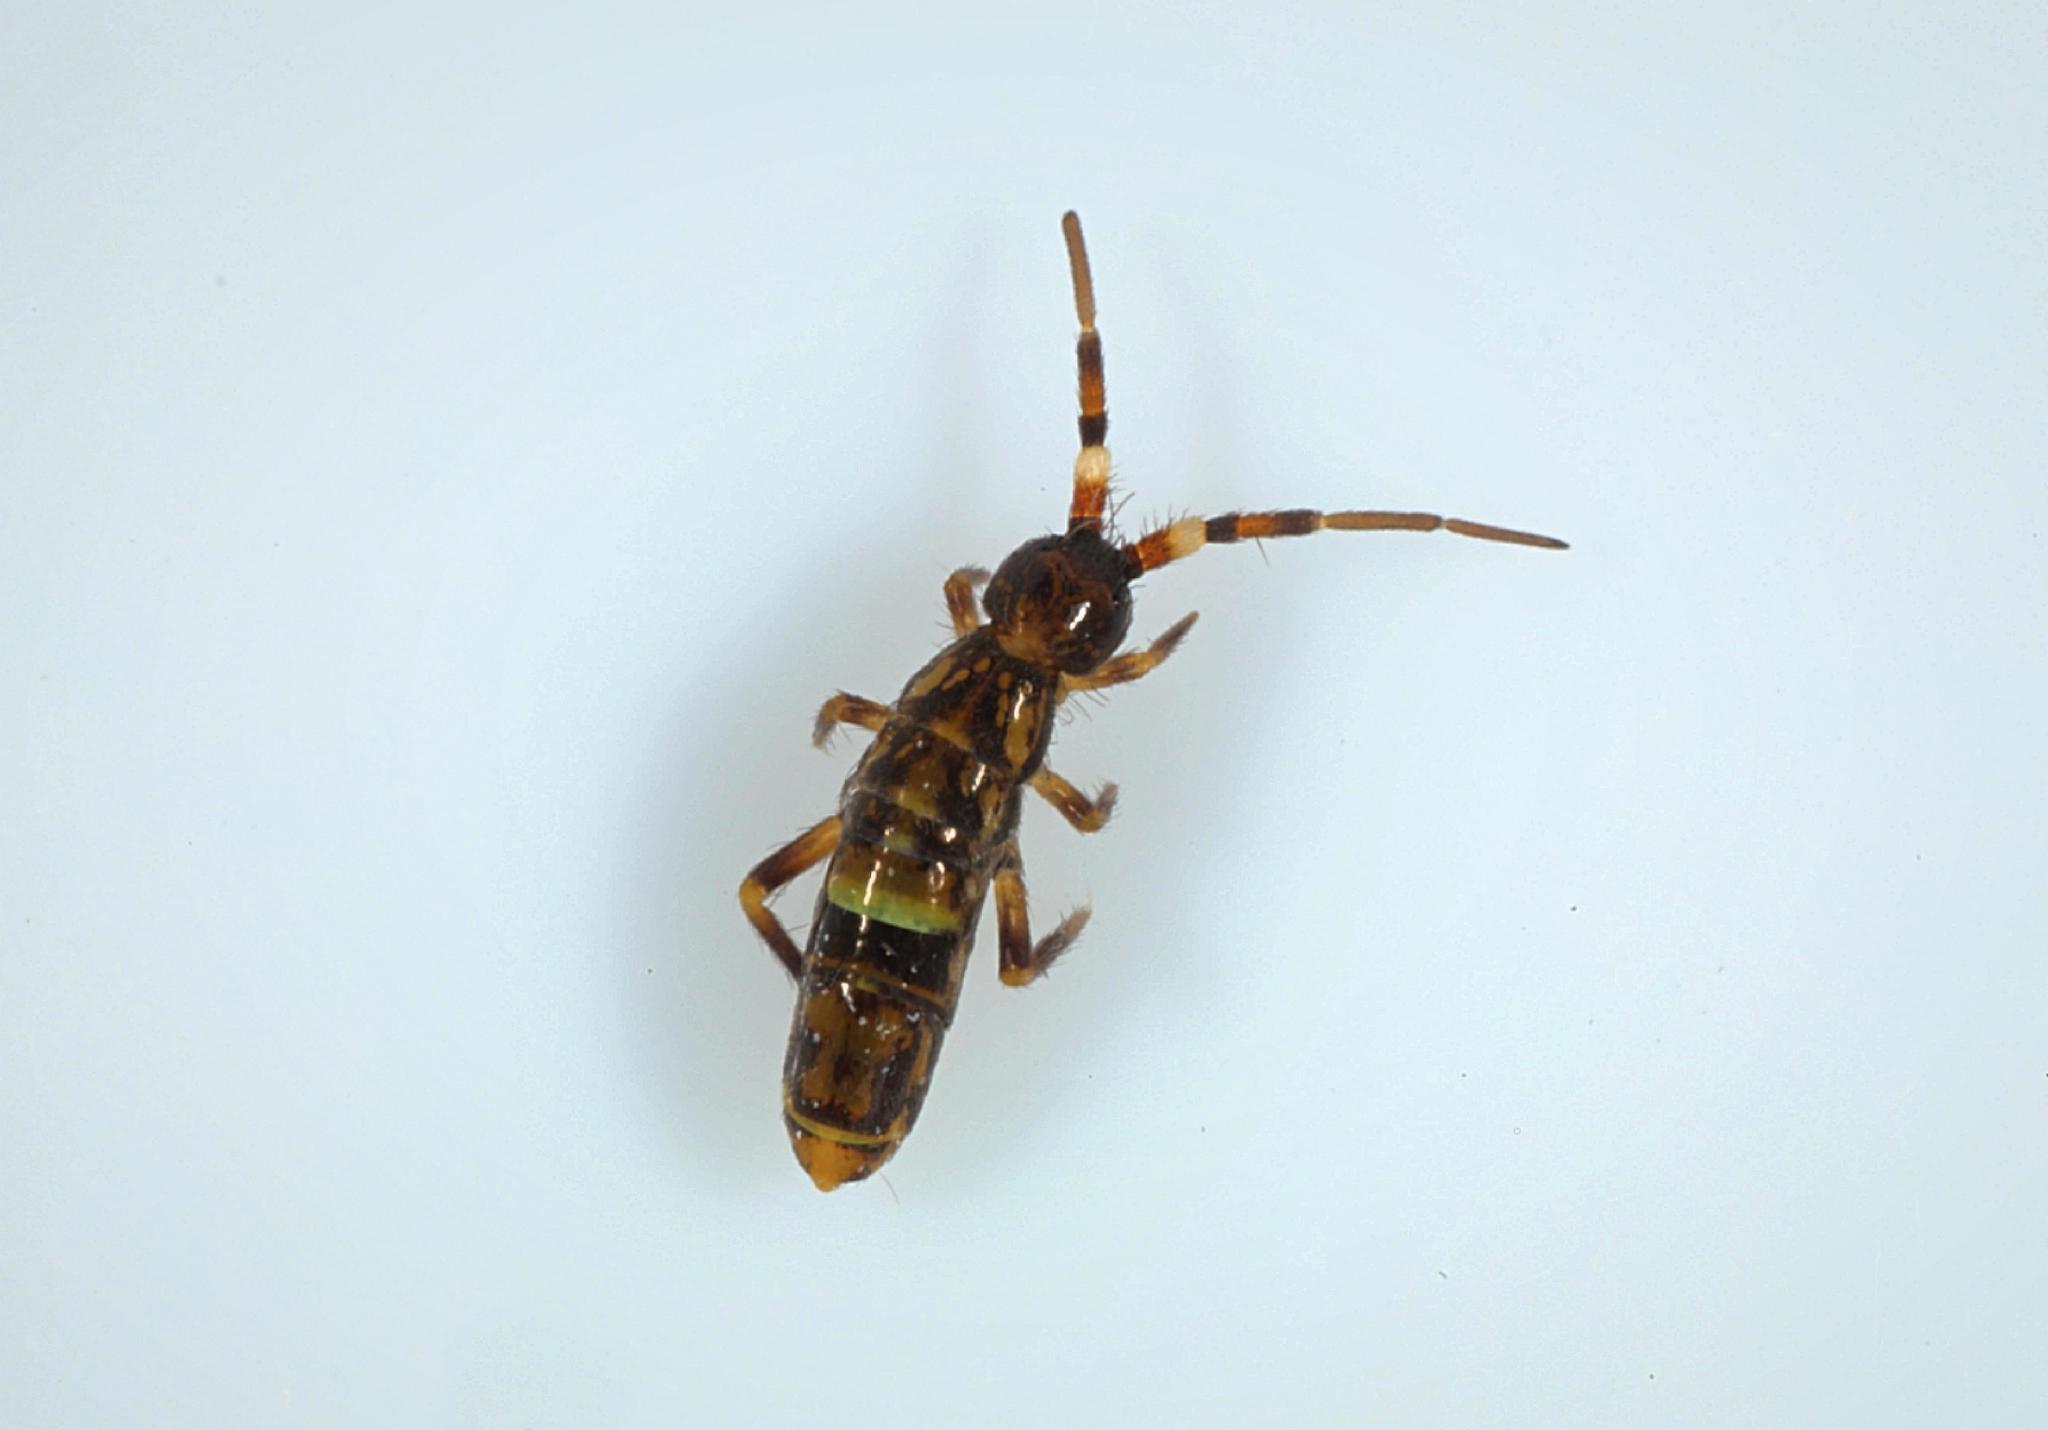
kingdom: Animalia
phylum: Arthropoda
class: Collembola
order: Entomobryomorpha
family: Orchesellidae
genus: Orchesella
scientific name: Orchesella cincta
